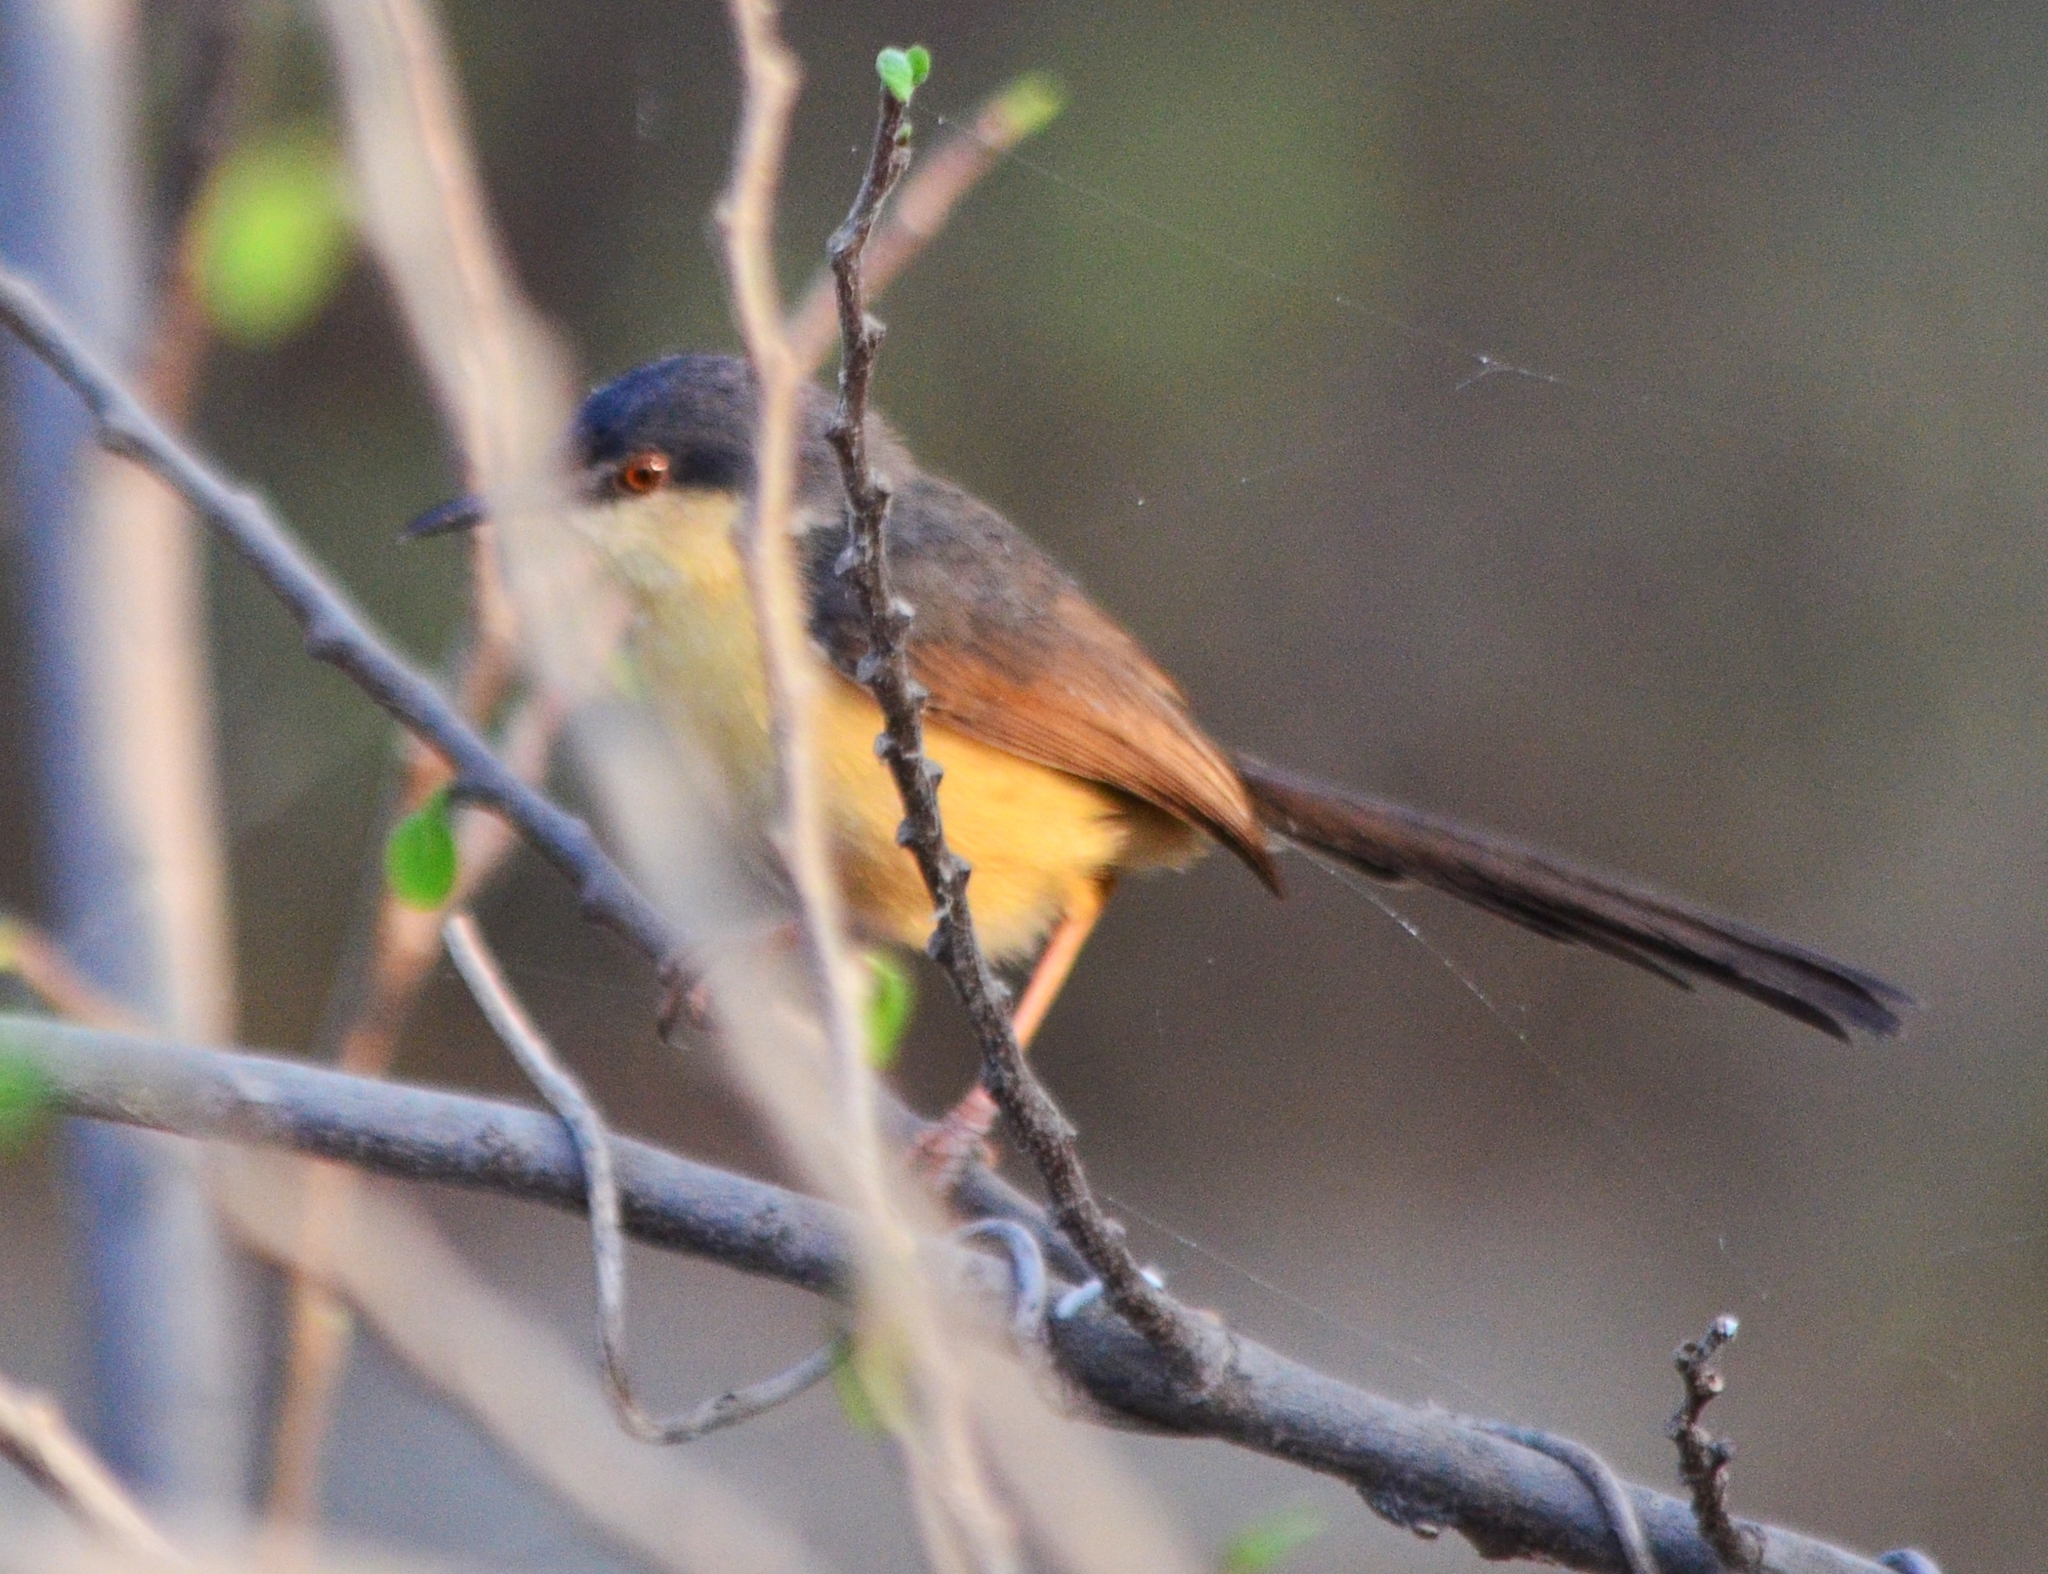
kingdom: Animalia
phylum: Chordata
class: Aves
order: Passeriformes
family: Cisticolidae
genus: Prinia
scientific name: Prinia socialis
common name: Ashy prinia
